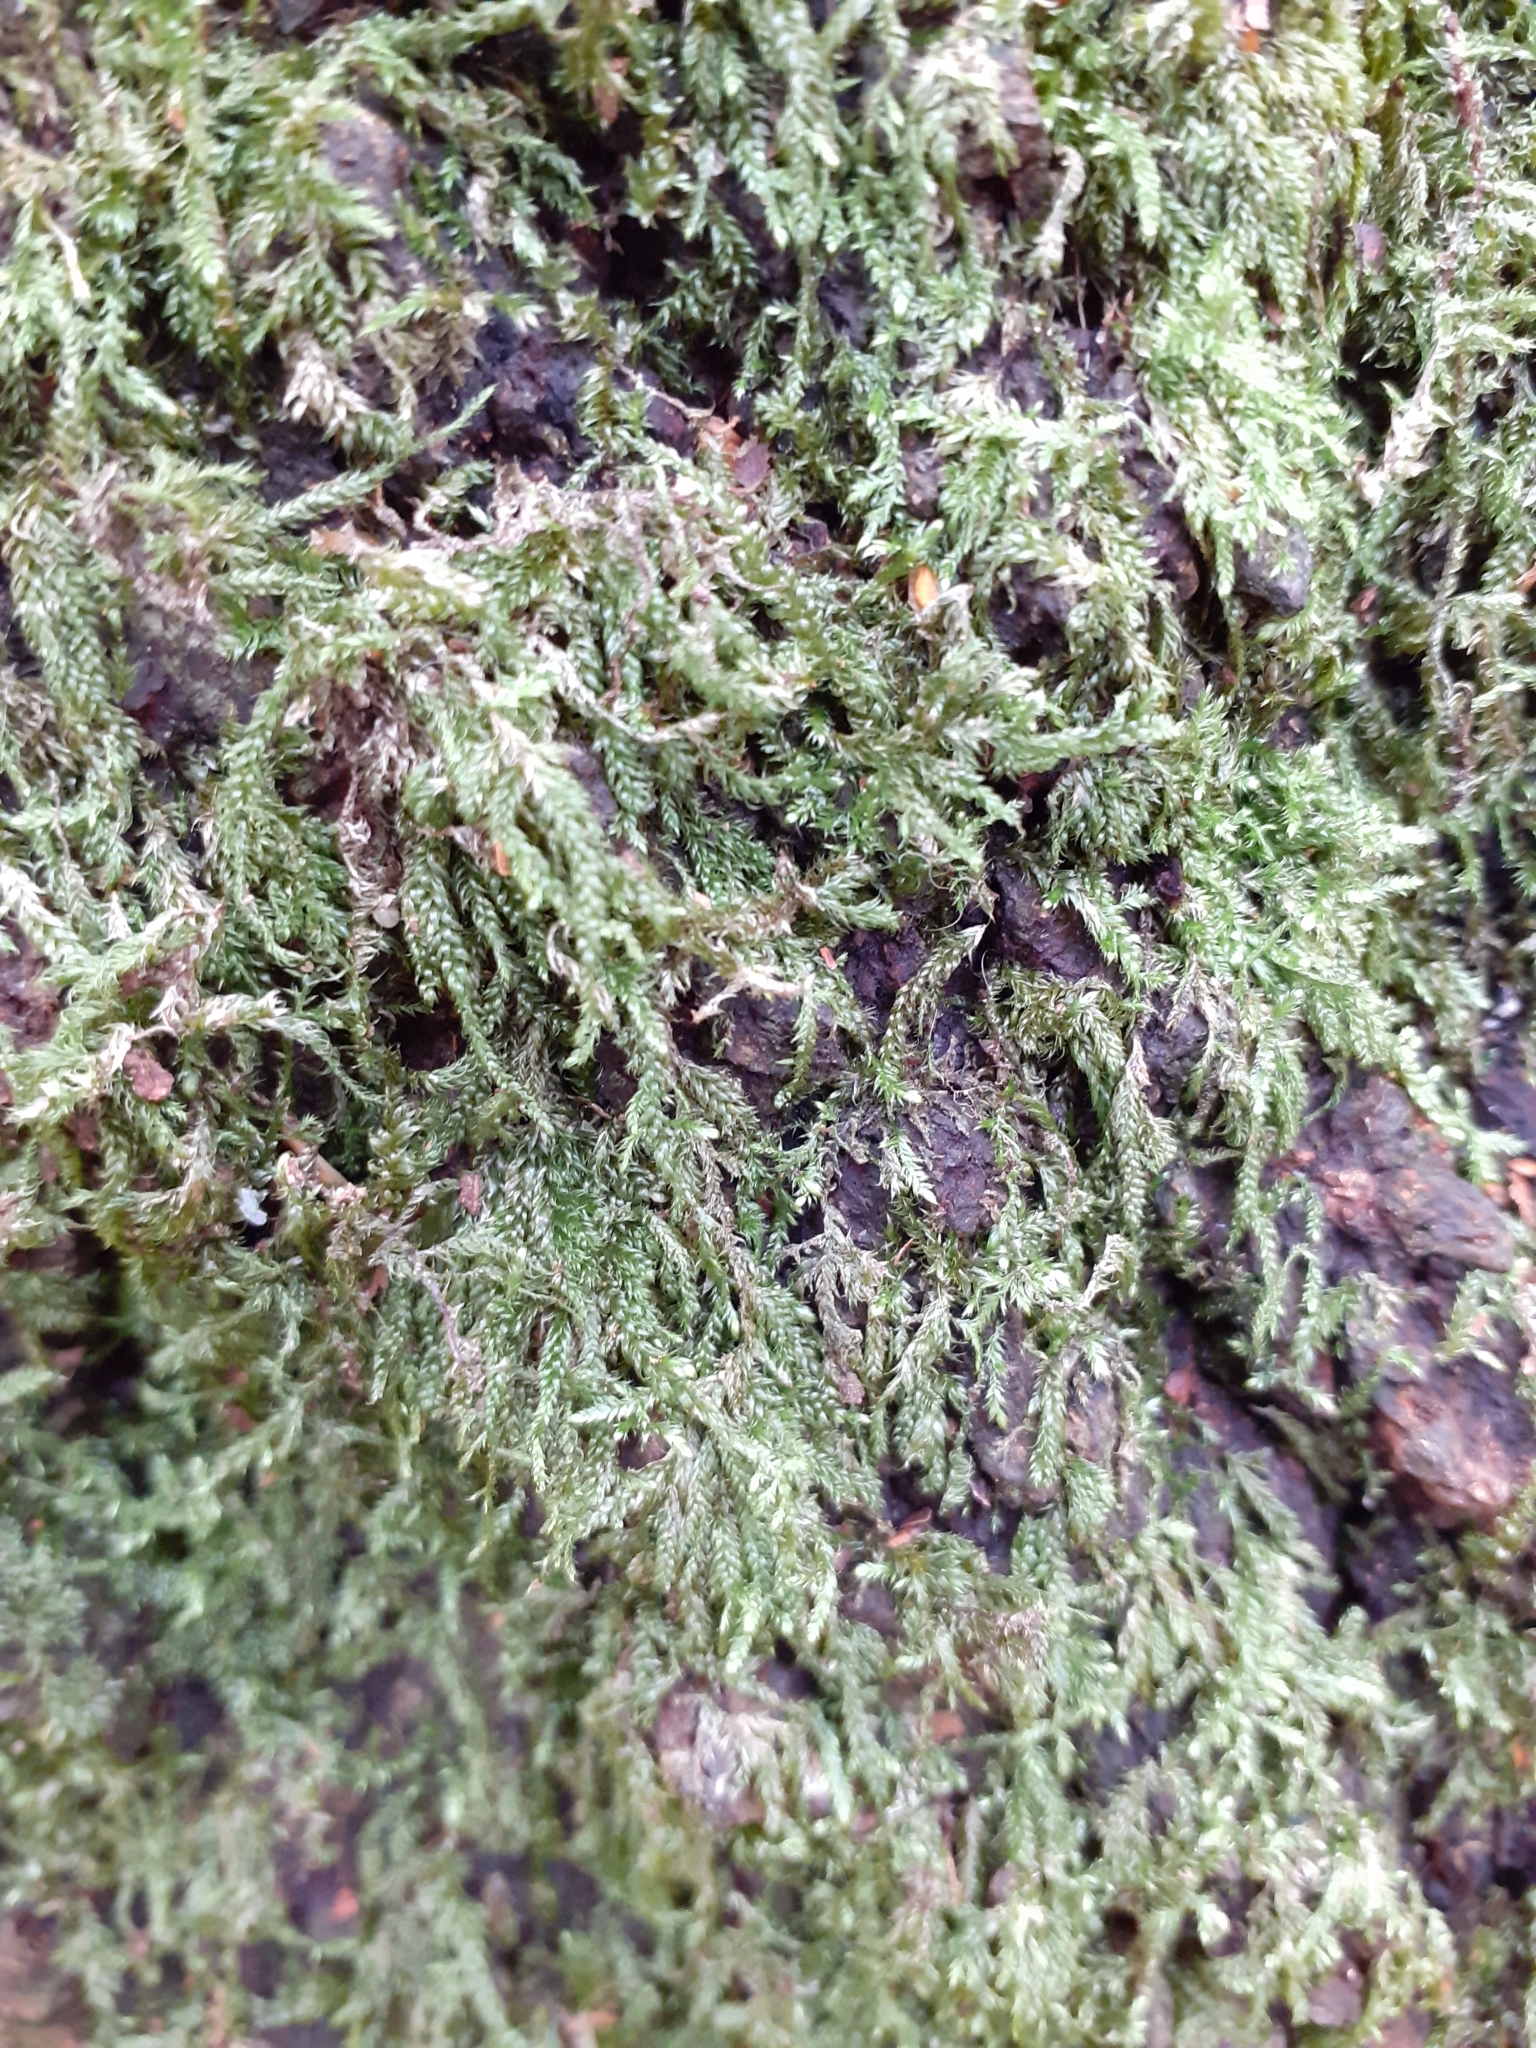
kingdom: Plantae
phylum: Bryophyta
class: Bryopsida
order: Hypnales
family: Hypnaceae
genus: Hypnum
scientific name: Hypnum cupressiforme
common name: Cypress-leaved plait-moss
